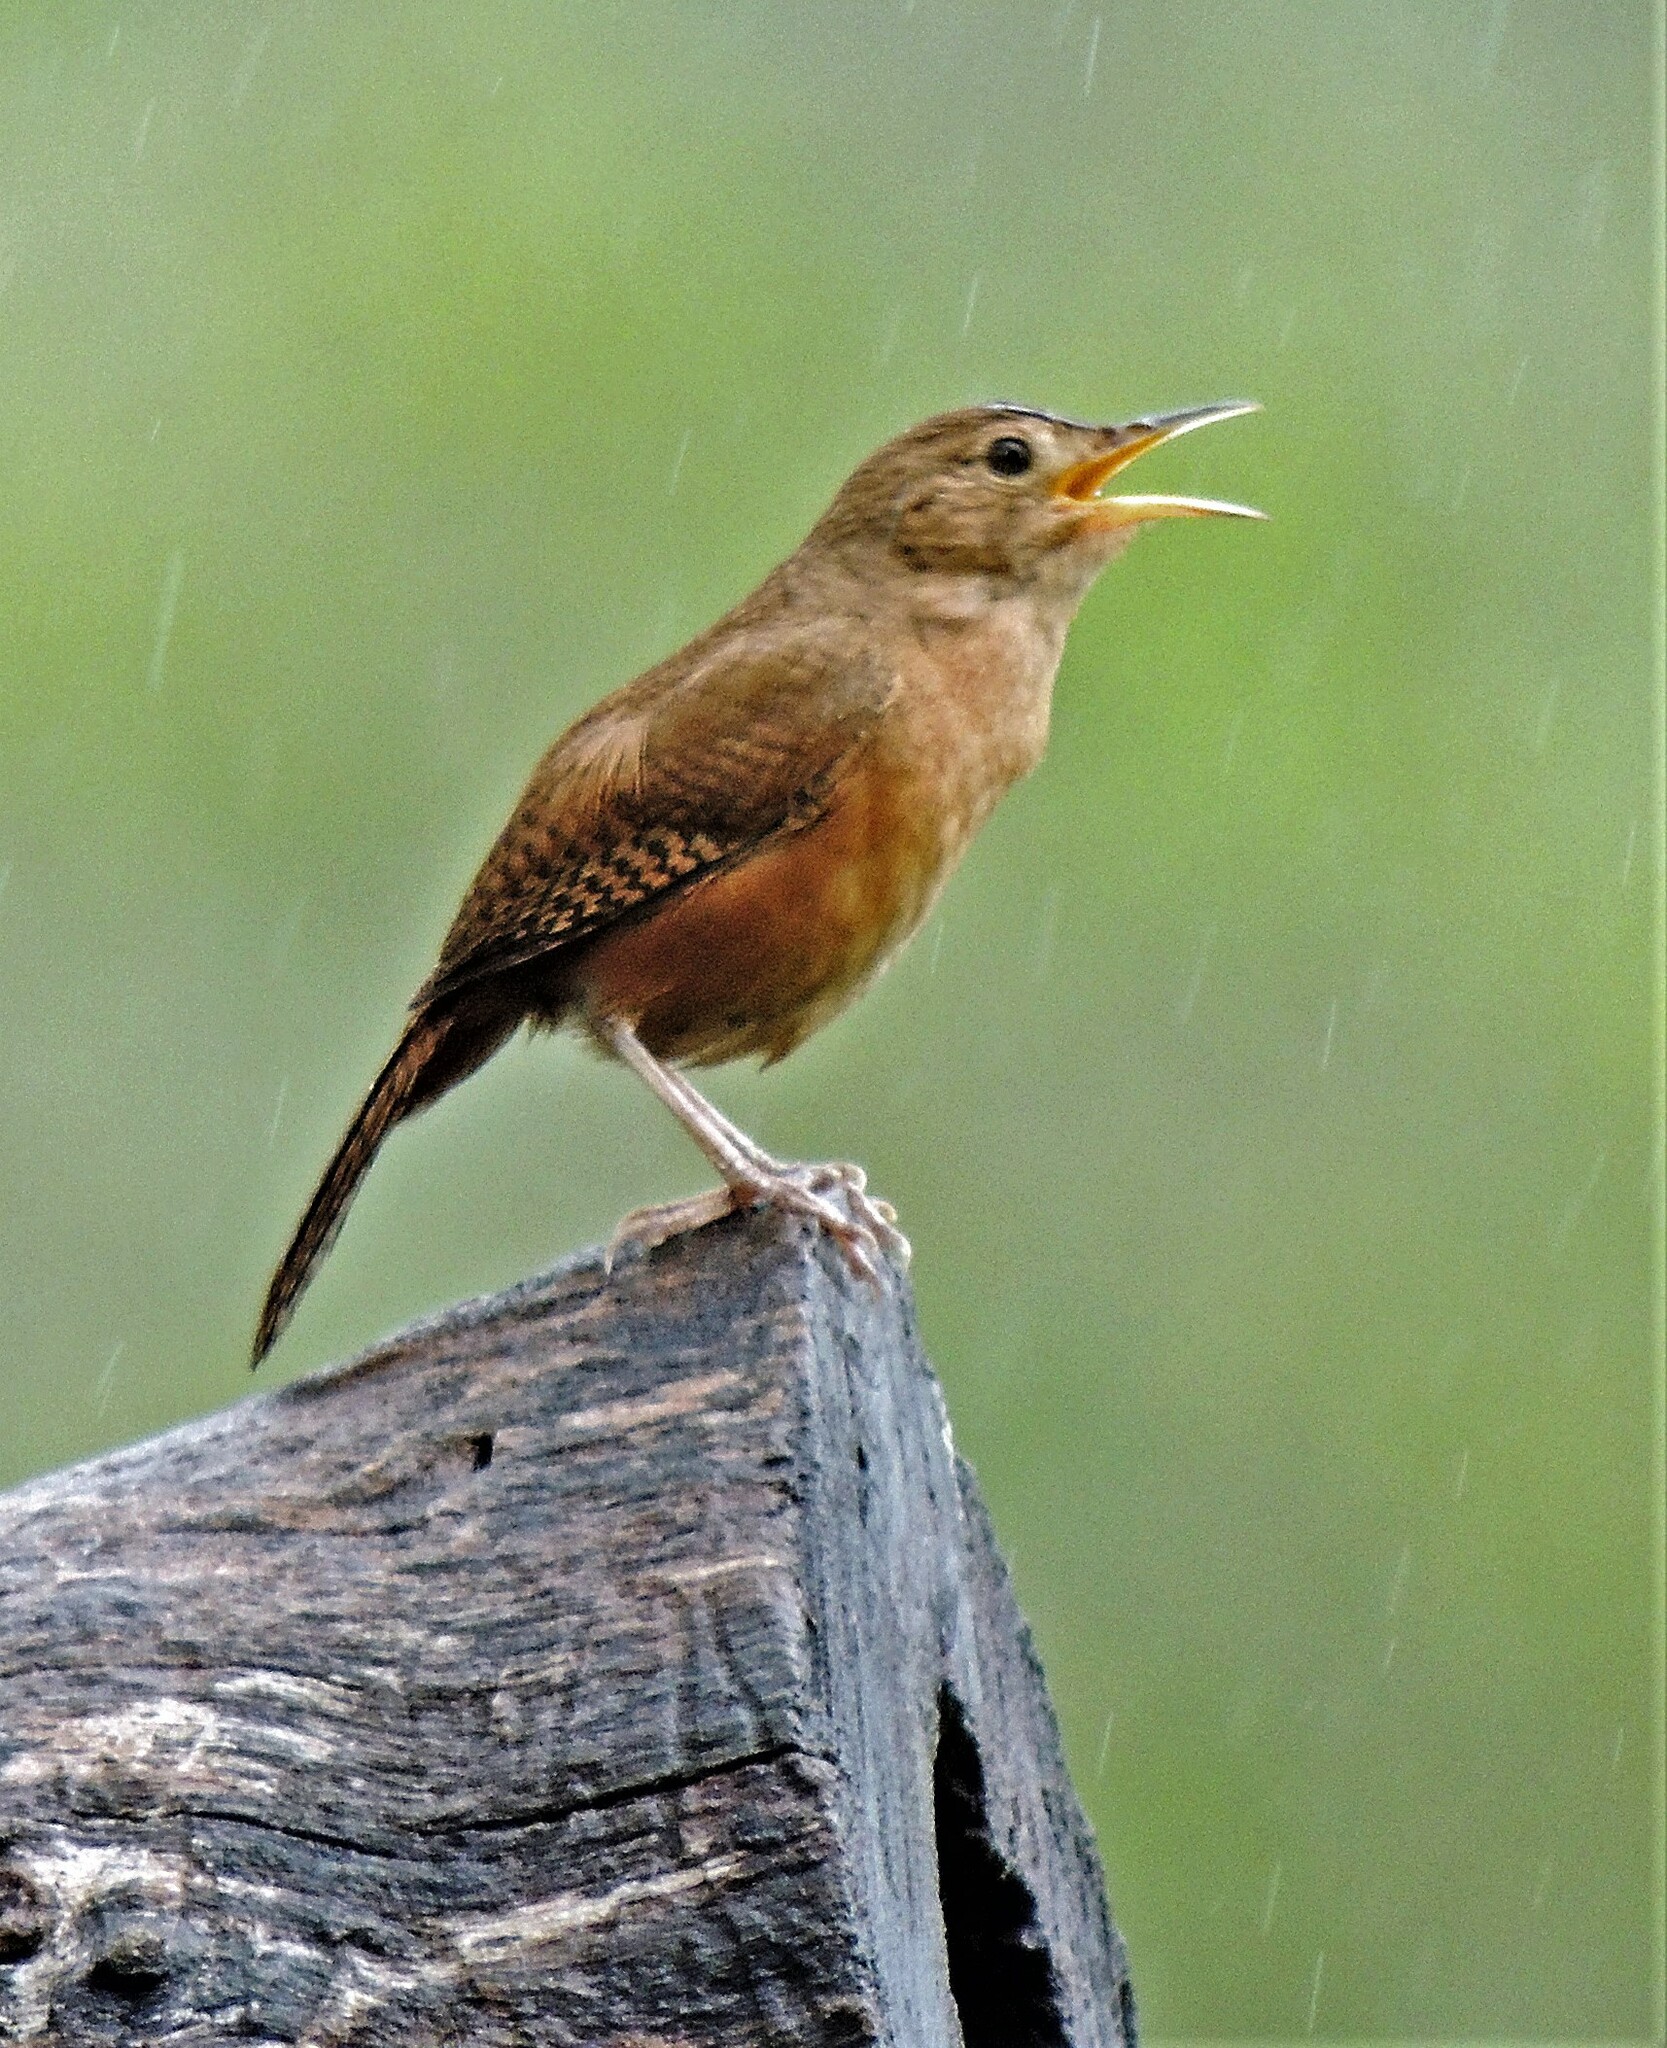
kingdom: Animalia
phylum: Chordata
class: Aves
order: Passeriformes
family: Troglodytidae
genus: Troglodytes
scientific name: Troglodytes aedon
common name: House wren
